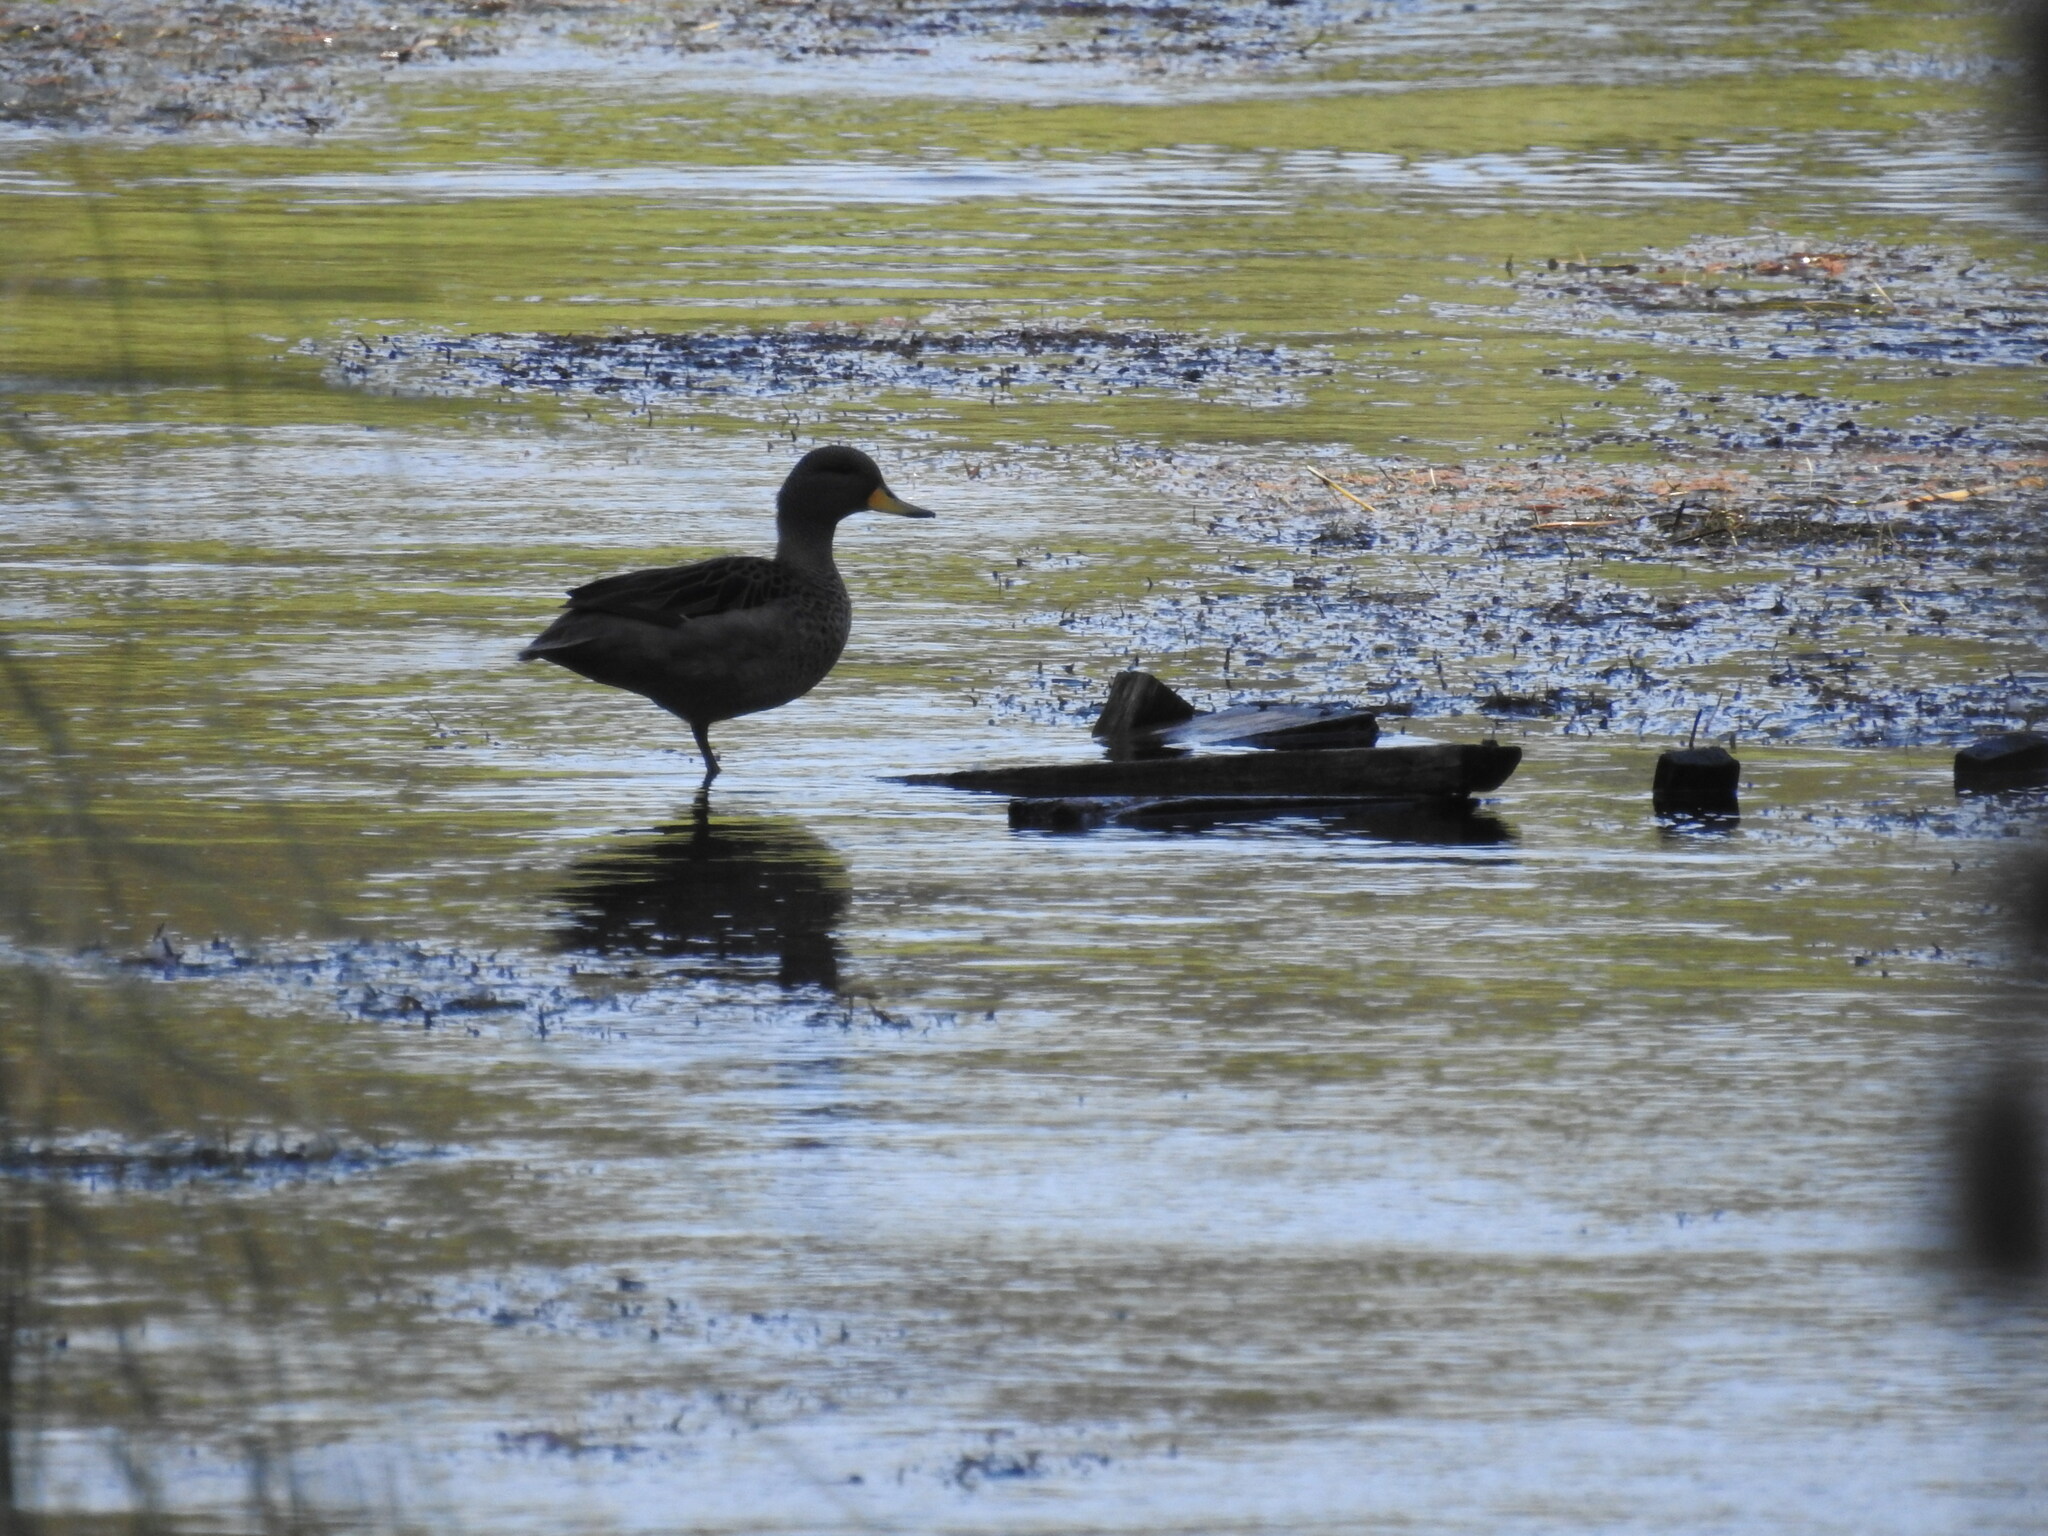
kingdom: Animalia
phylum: Chordata
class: Aves
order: Anseriformes
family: Anatidae
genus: Anas
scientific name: Anas flavirostris
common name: Yellow-billed teal
